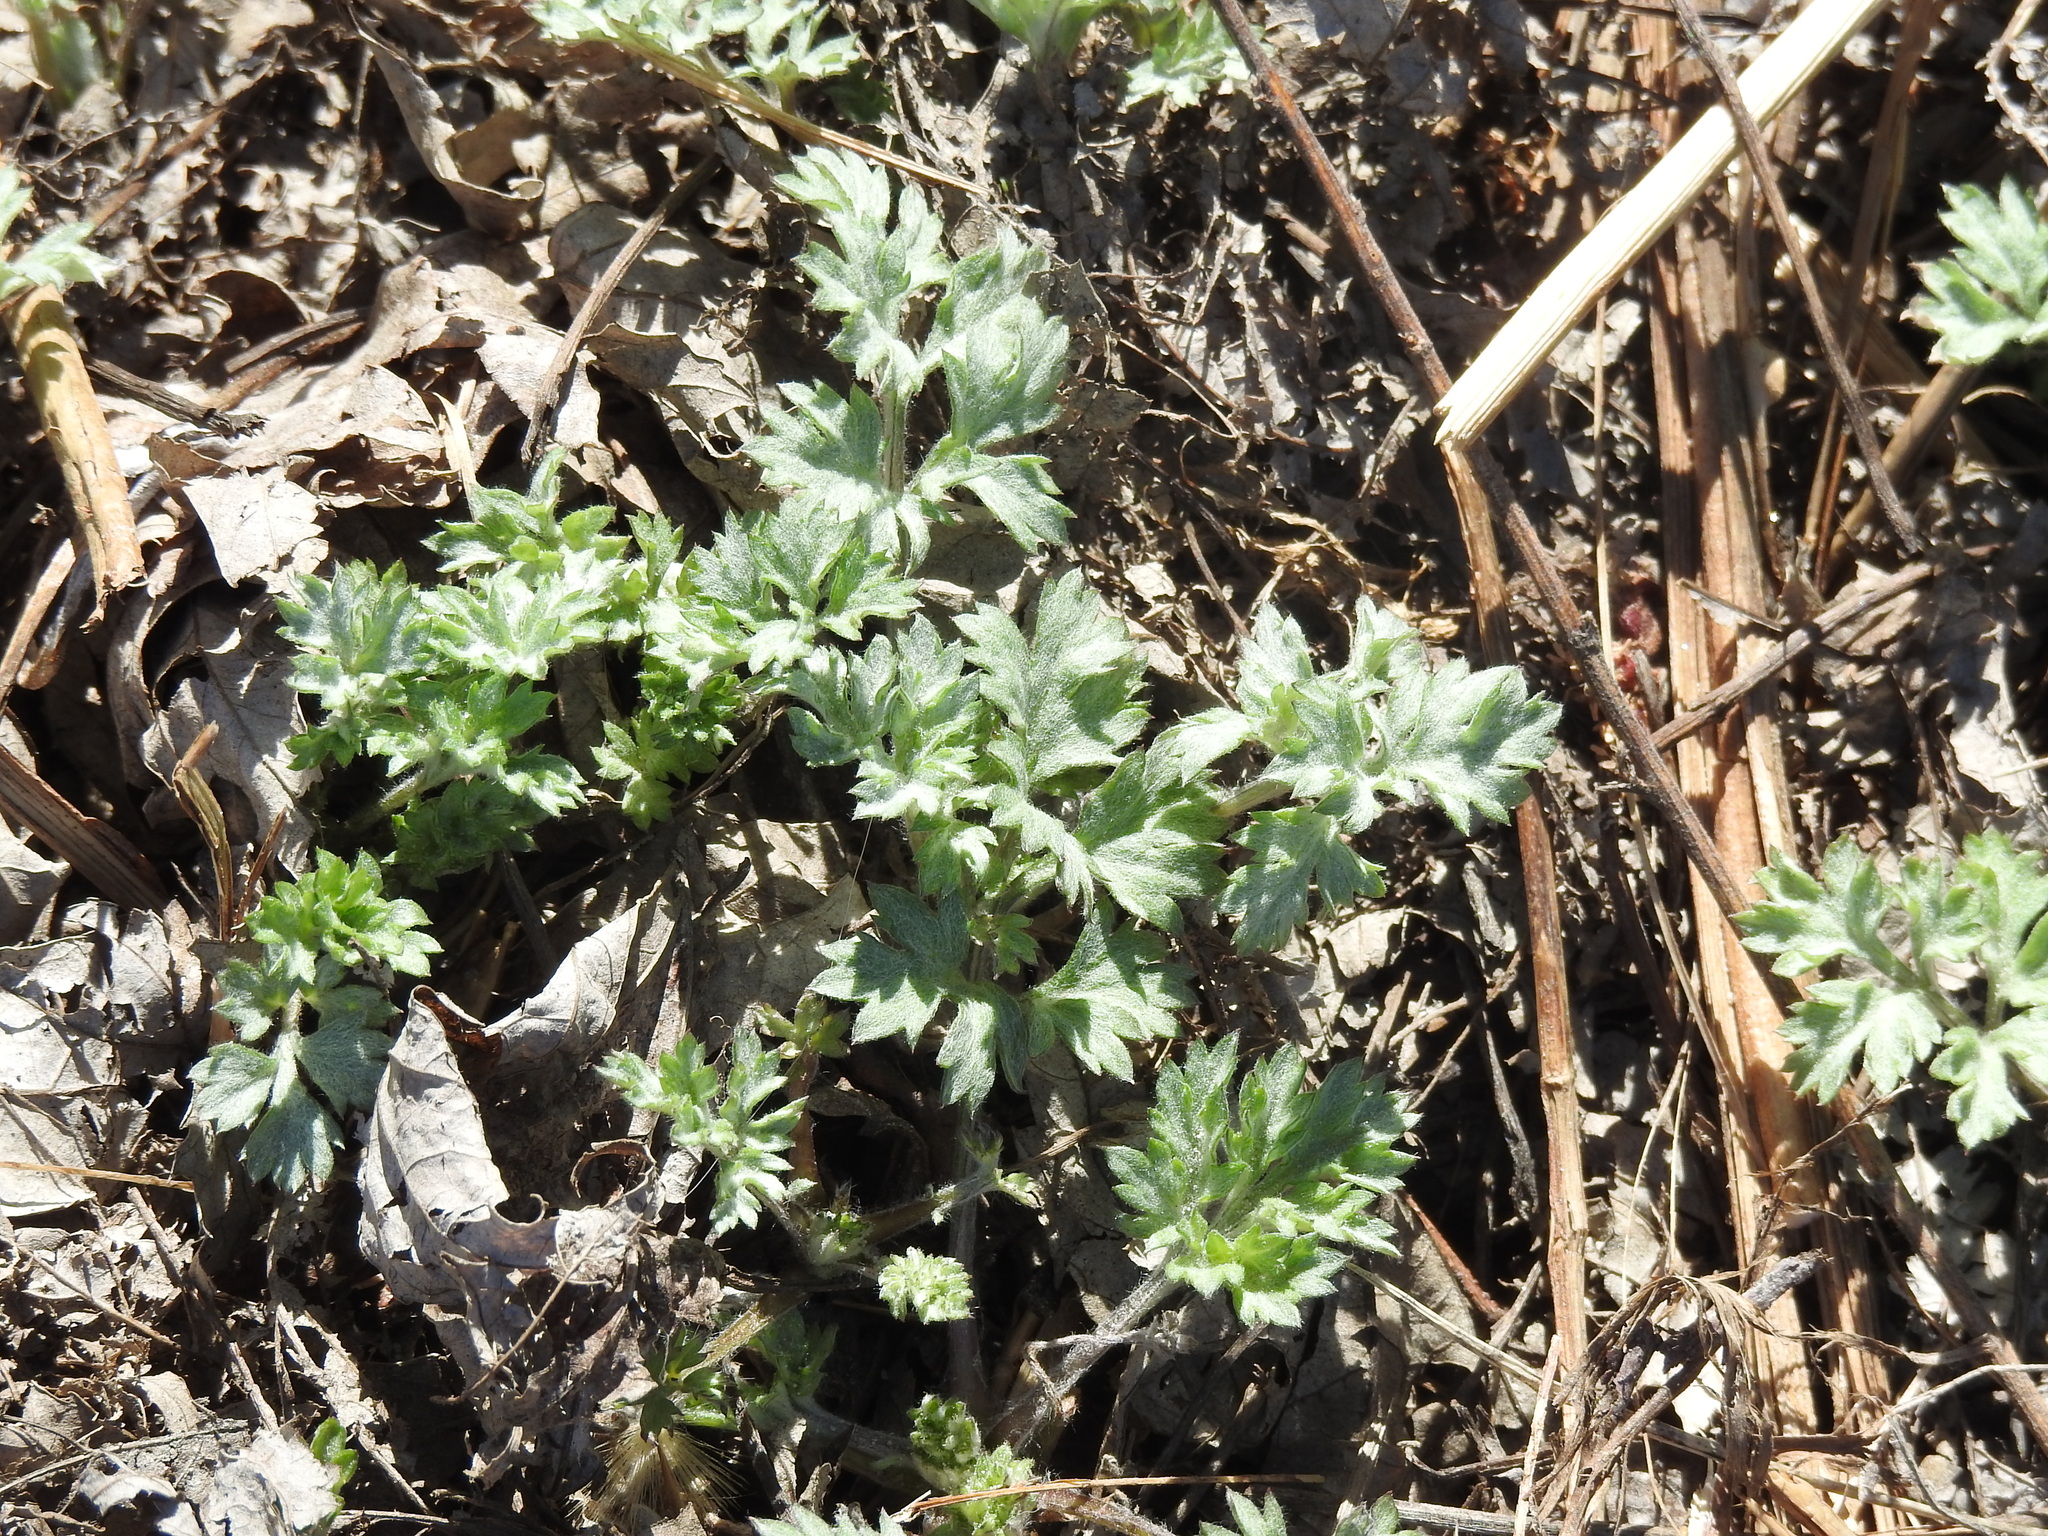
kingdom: Plantae
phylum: Tracheophyta
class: Magnoliopsida
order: Asterales
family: Asteraceae
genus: Artemisia
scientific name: Artemisia vulgaris
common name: Mugwort
